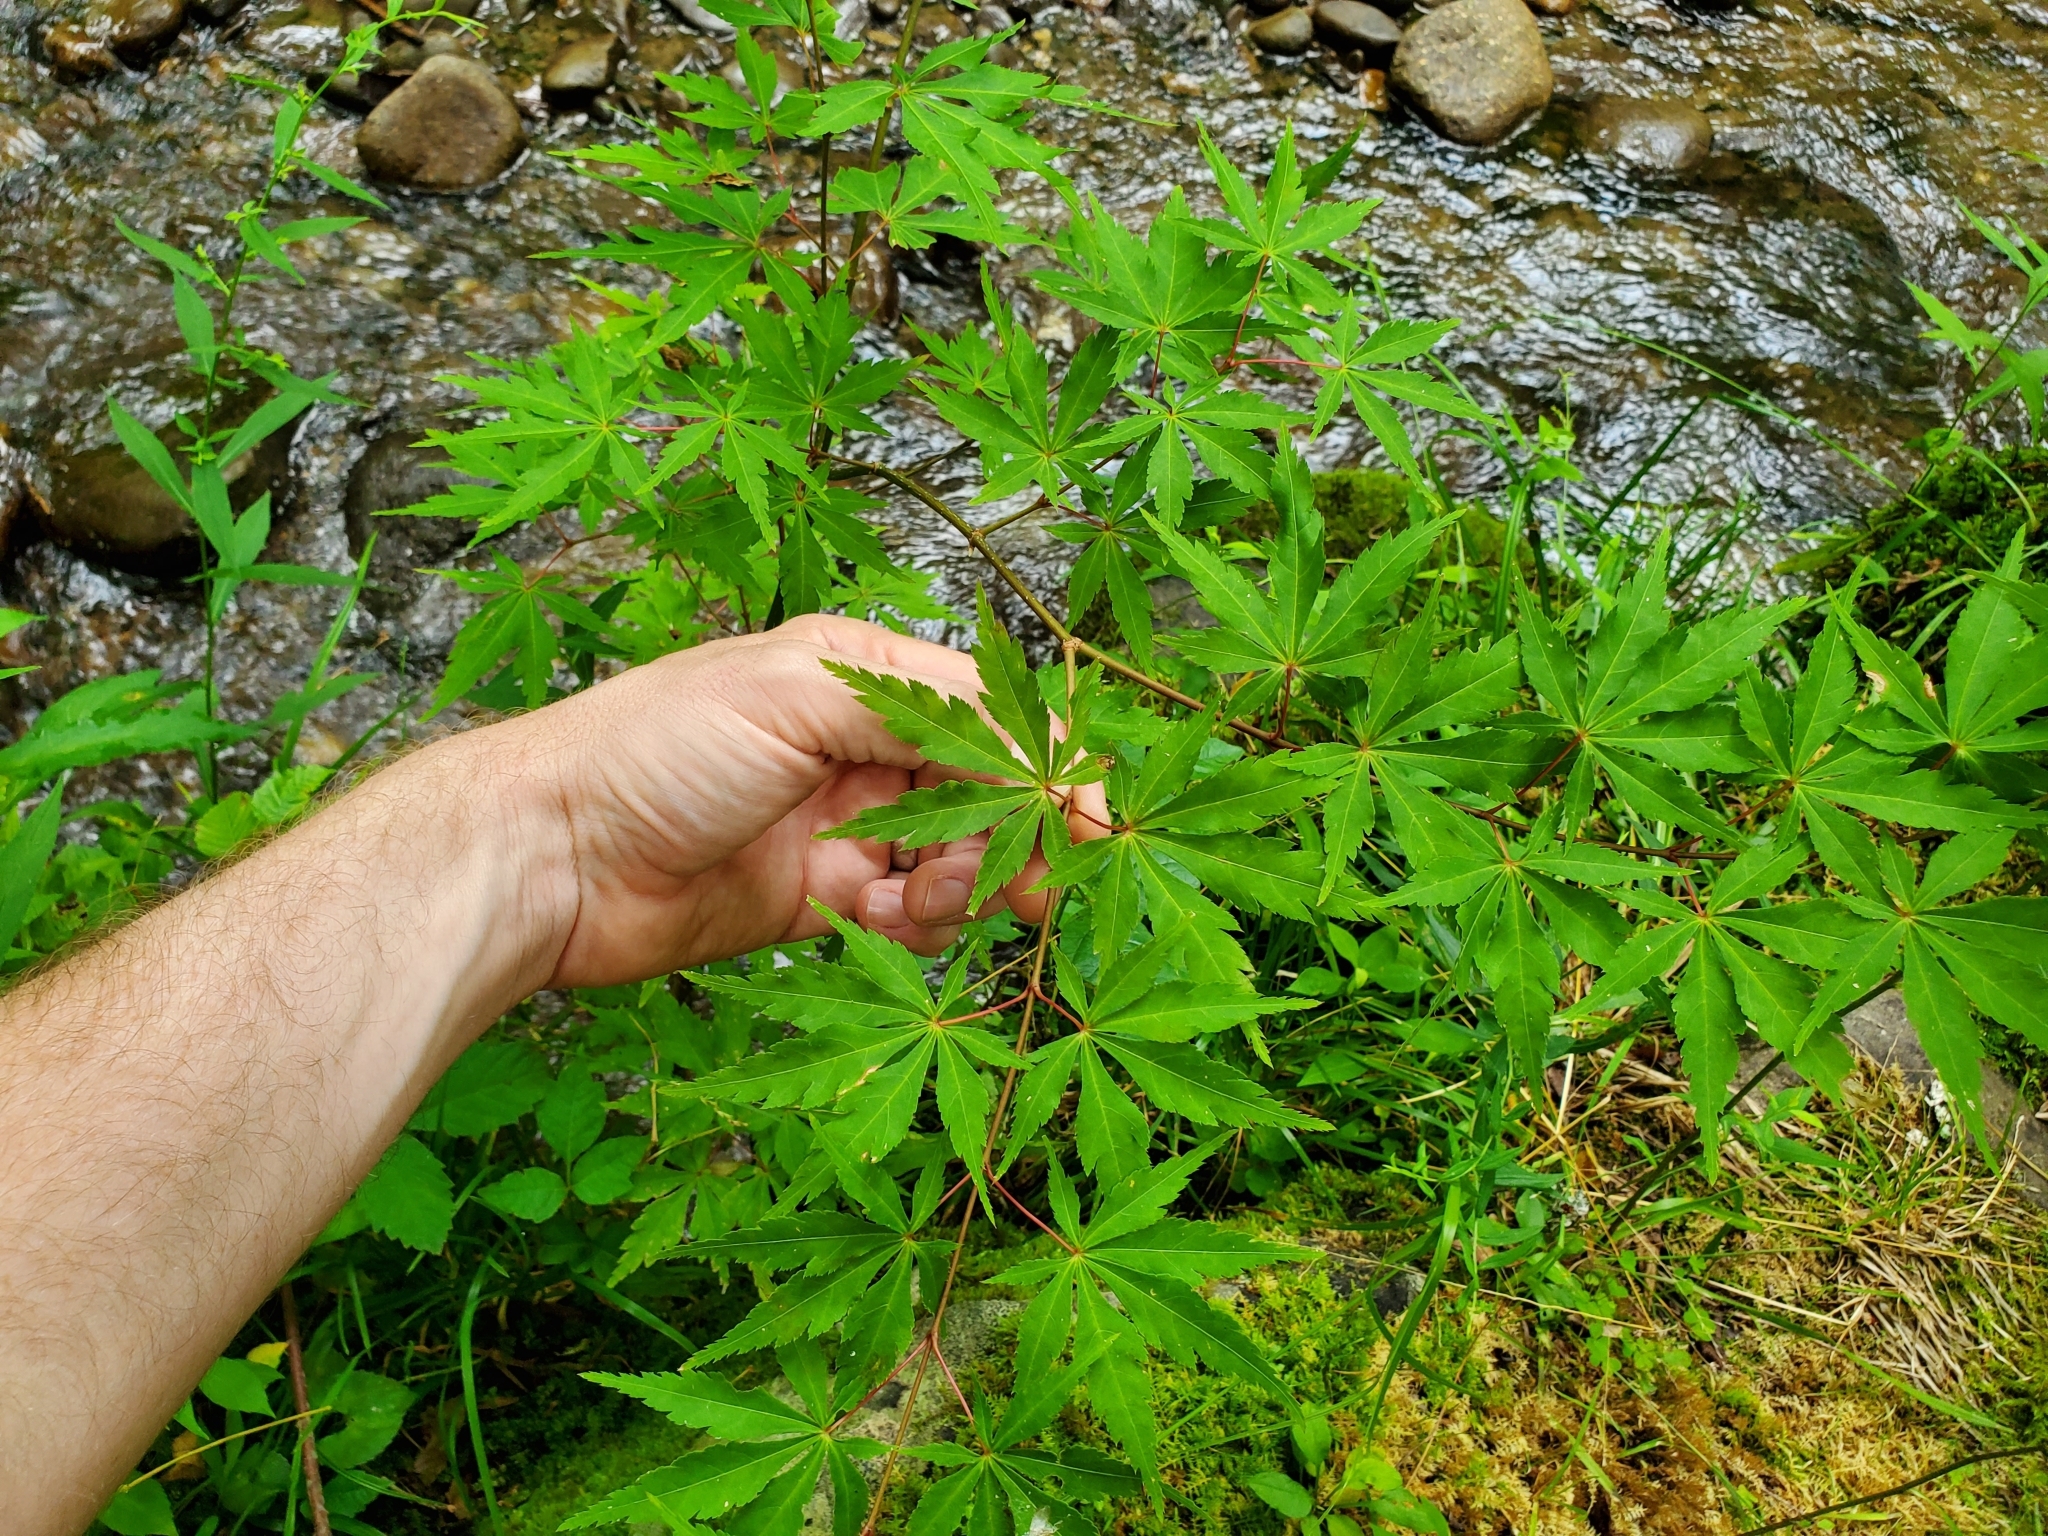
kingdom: Plantae
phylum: Tracheophyta
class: Magnoliopsida
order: Sapindales
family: Sapindaceae
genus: Acer
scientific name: Acer palmatum
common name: Japanese maple
